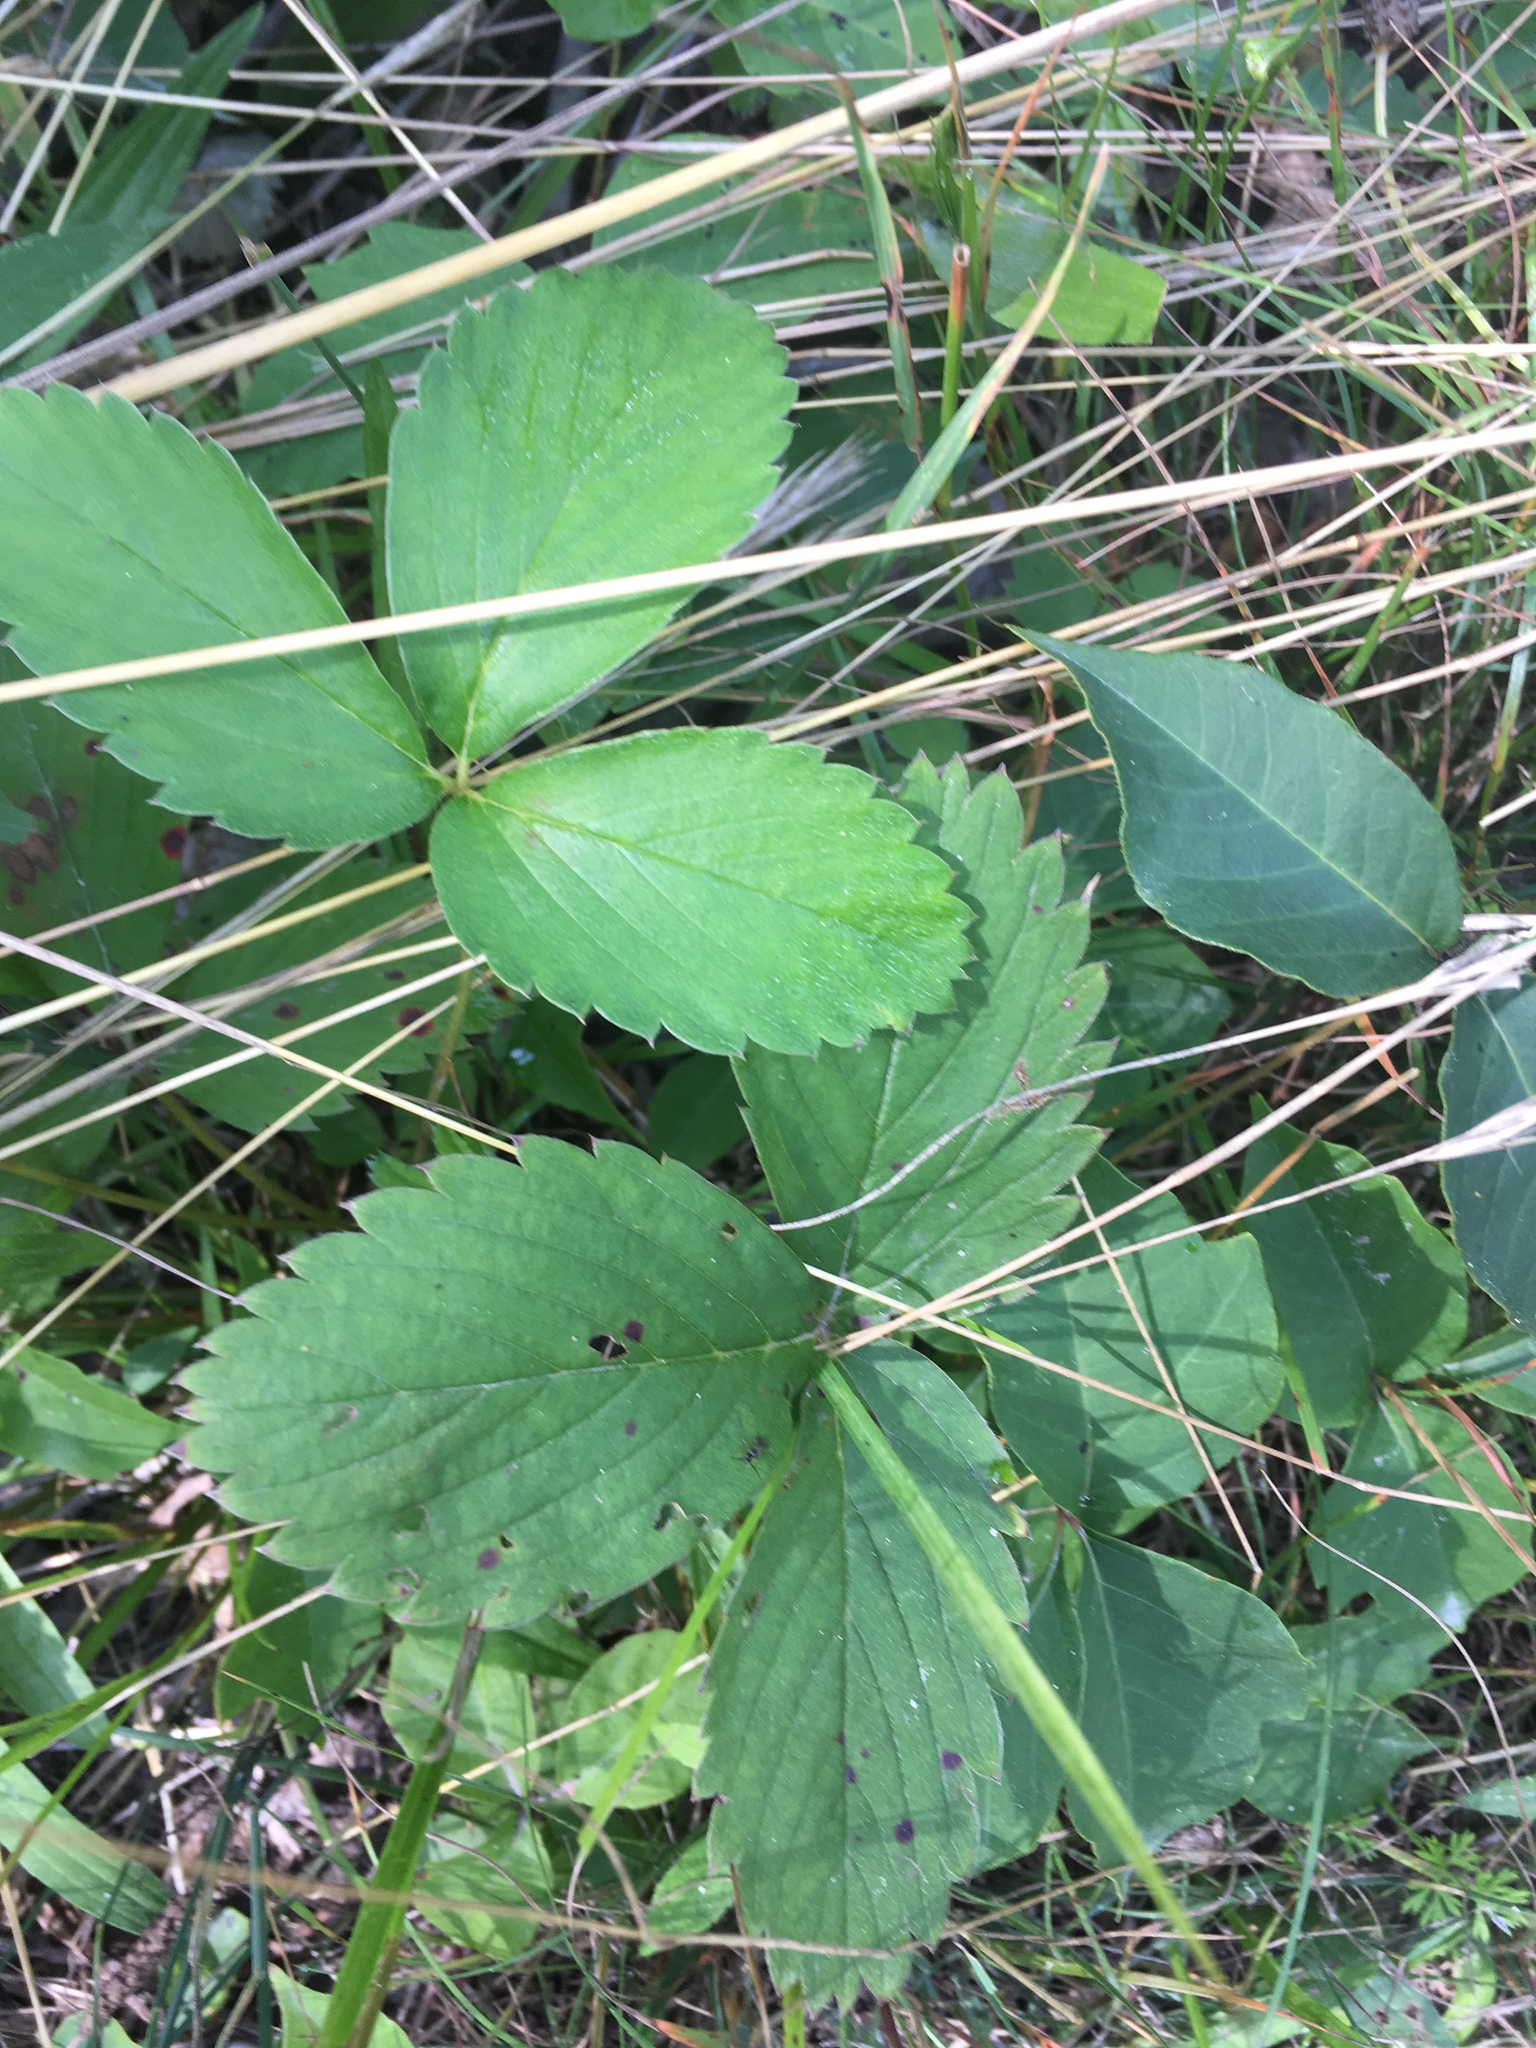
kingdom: Plantae
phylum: Tracheophyta
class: Magnoliopsida
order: Rosales
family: Rosaceae
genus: Fragaria
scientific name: Fragaria virginiana
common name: Thickleaved wild strawberry
